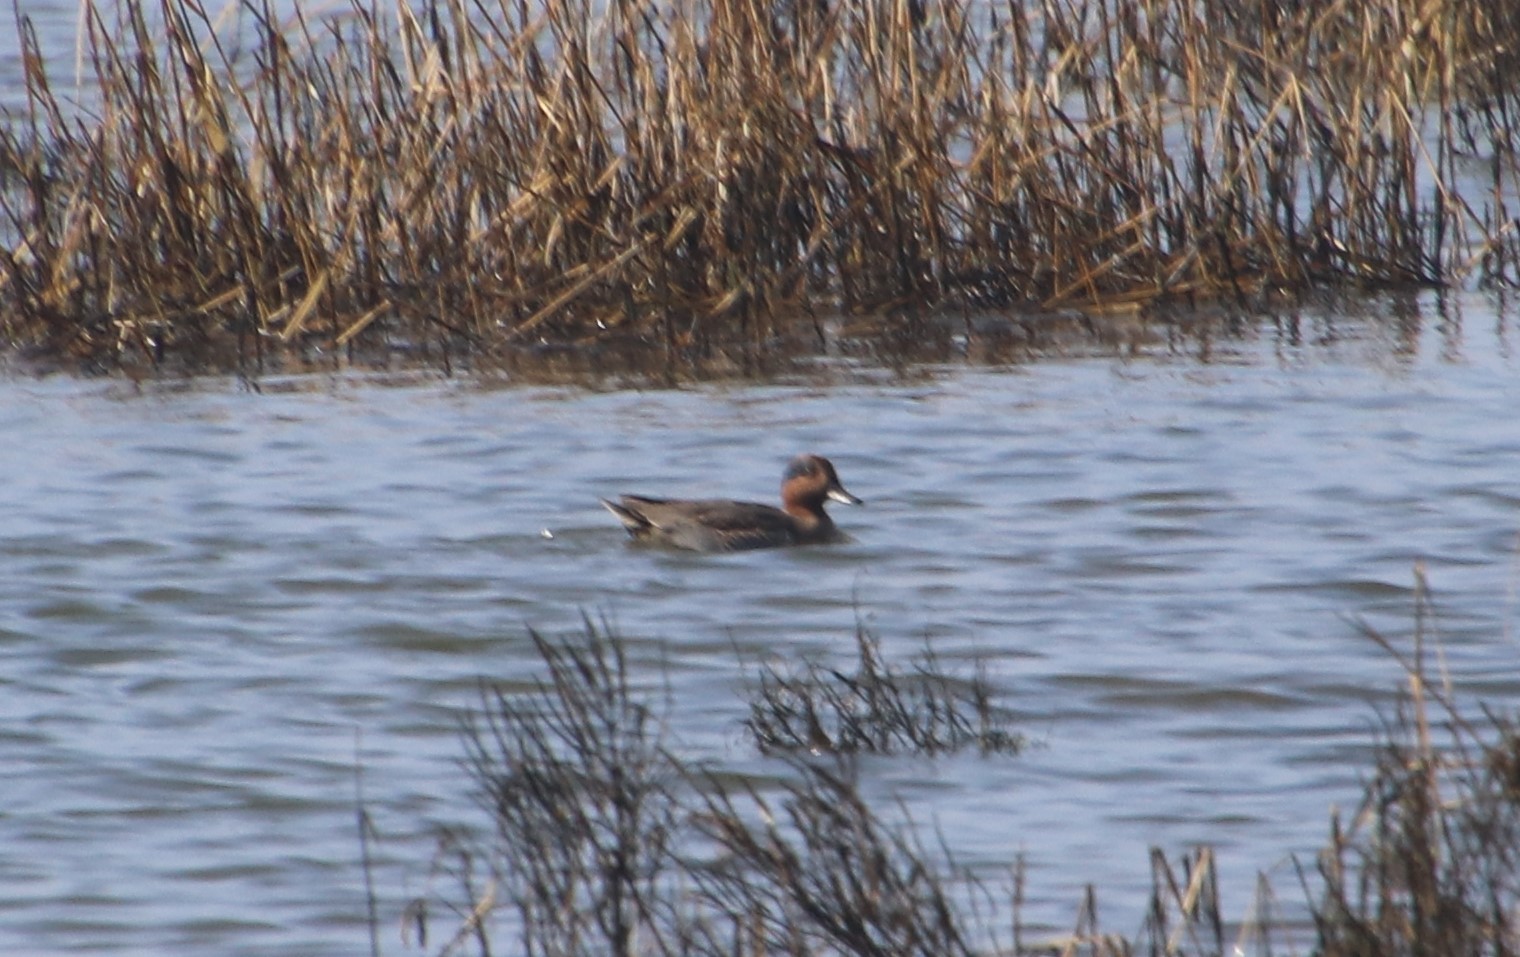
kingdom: Animalia
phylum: Chordata
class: Aves
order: Anseriformes
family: Anatidae
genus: Anas
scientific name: Anas crecca
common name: Eurasian teal
